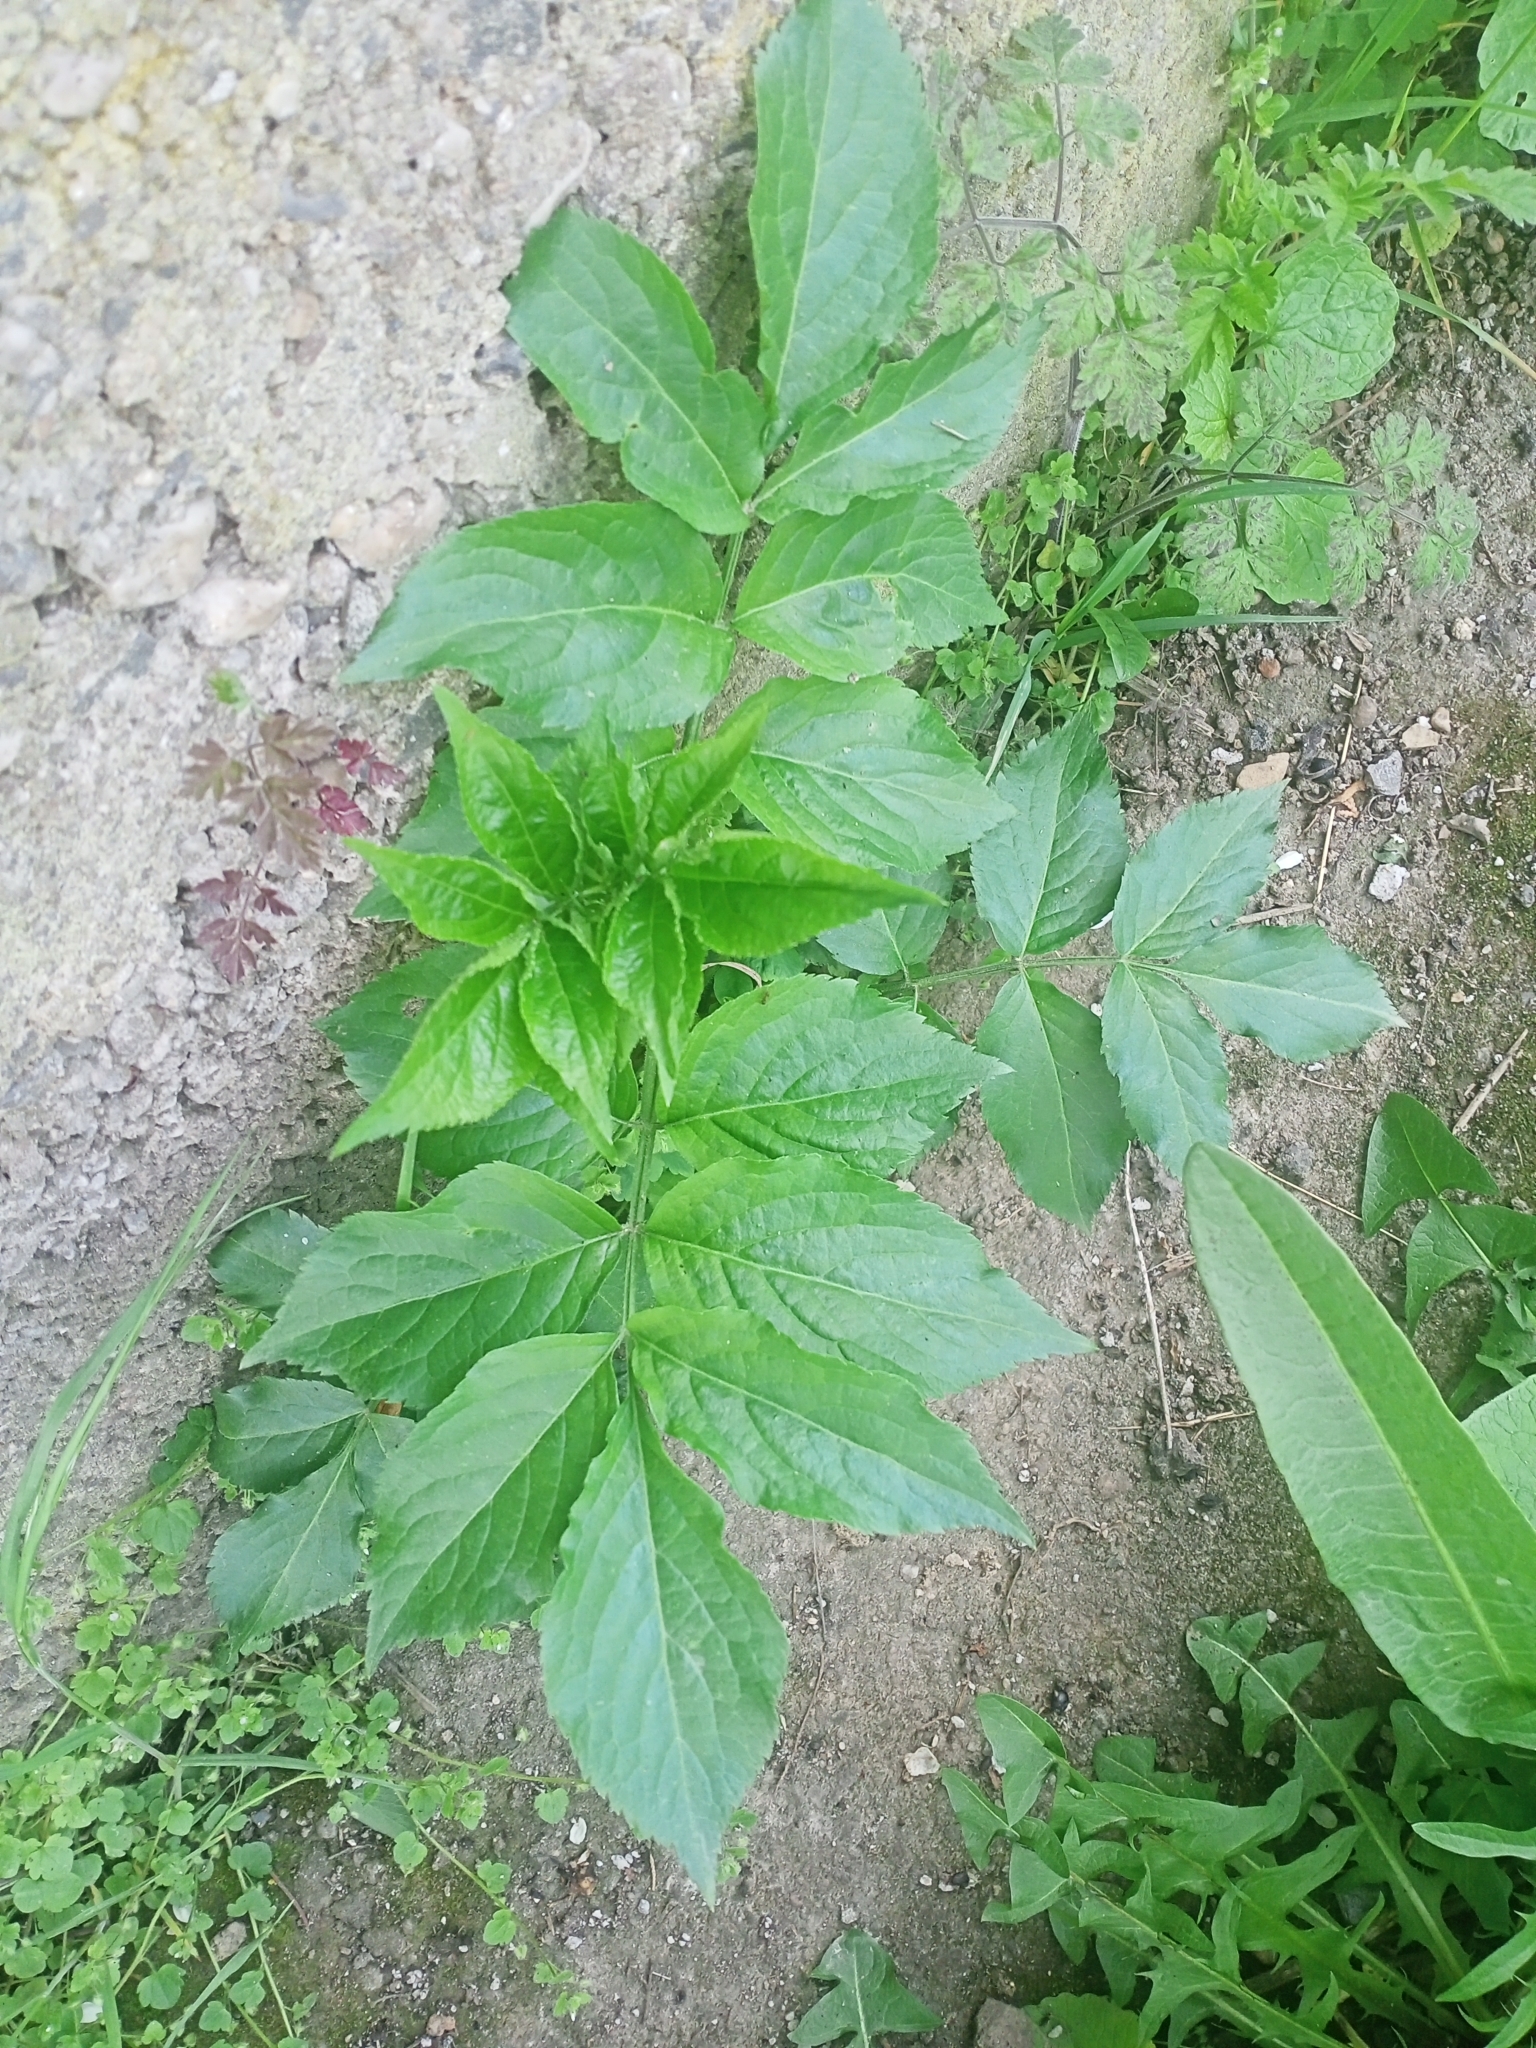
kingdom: Plantae
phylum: Tracheophyta
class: Magnoliopsida
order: Dipsacales
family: Viburnaceae
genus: Sambucus
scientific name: Sambucus nigra
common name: Elder
